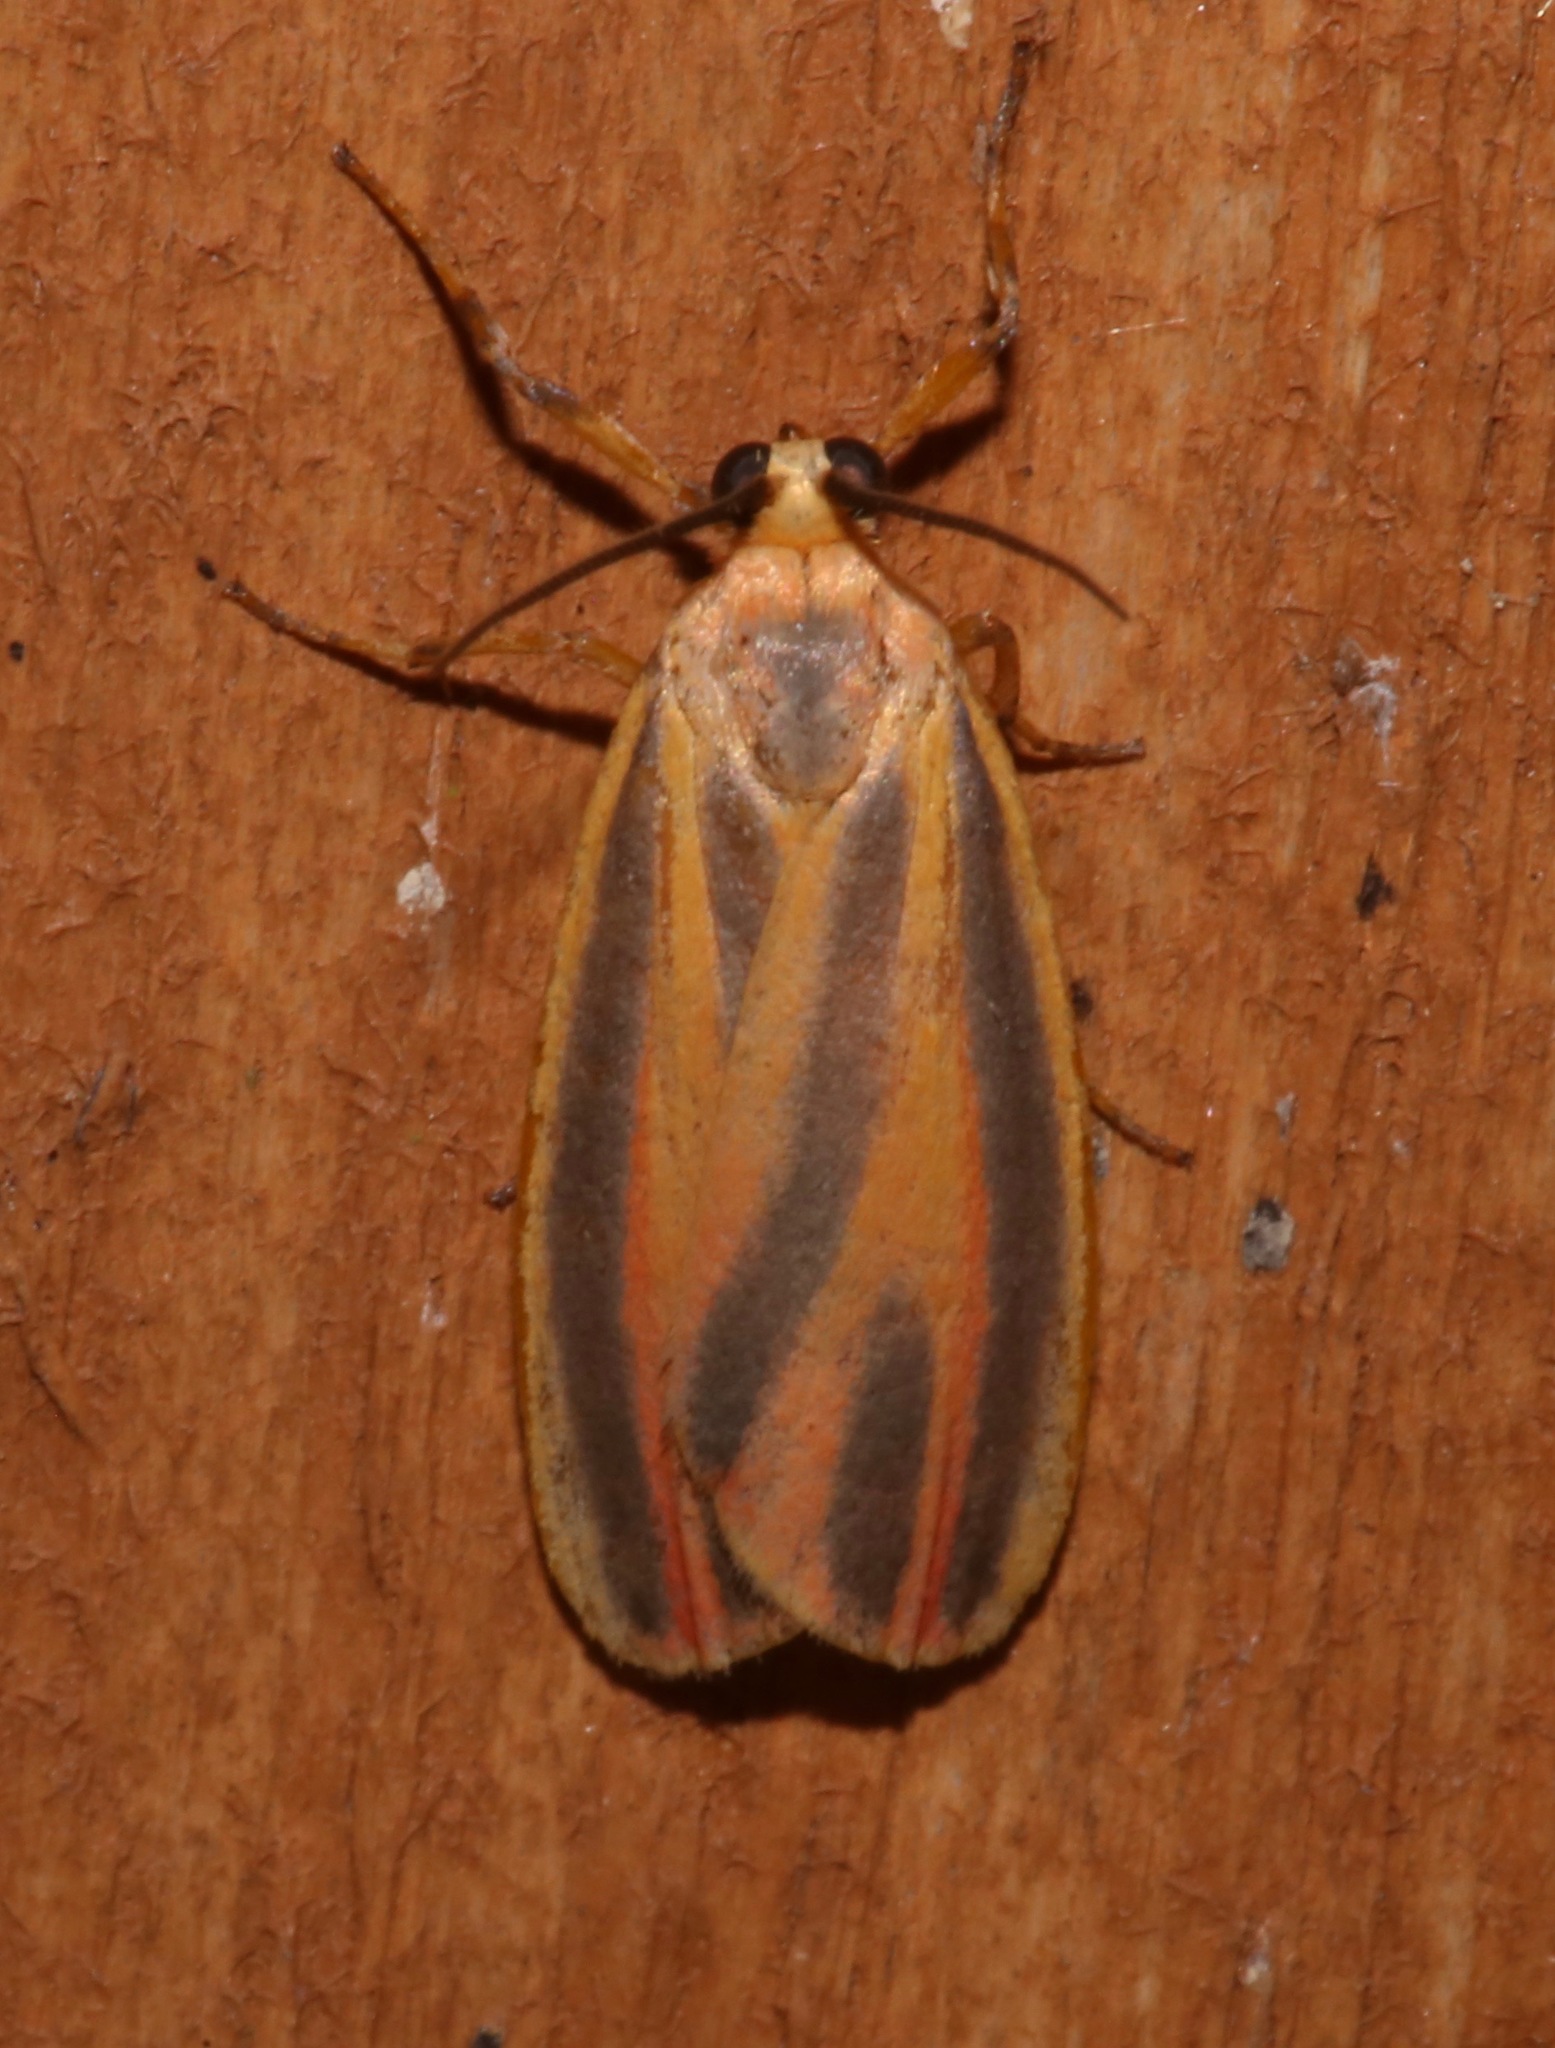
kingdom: Animalia
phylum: Arthropoda
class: Insecta
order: Lepidoptera
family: Erebidae
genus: Hypoprepia
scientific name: Hypoprepia fucosa
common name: Painted lichen moth
